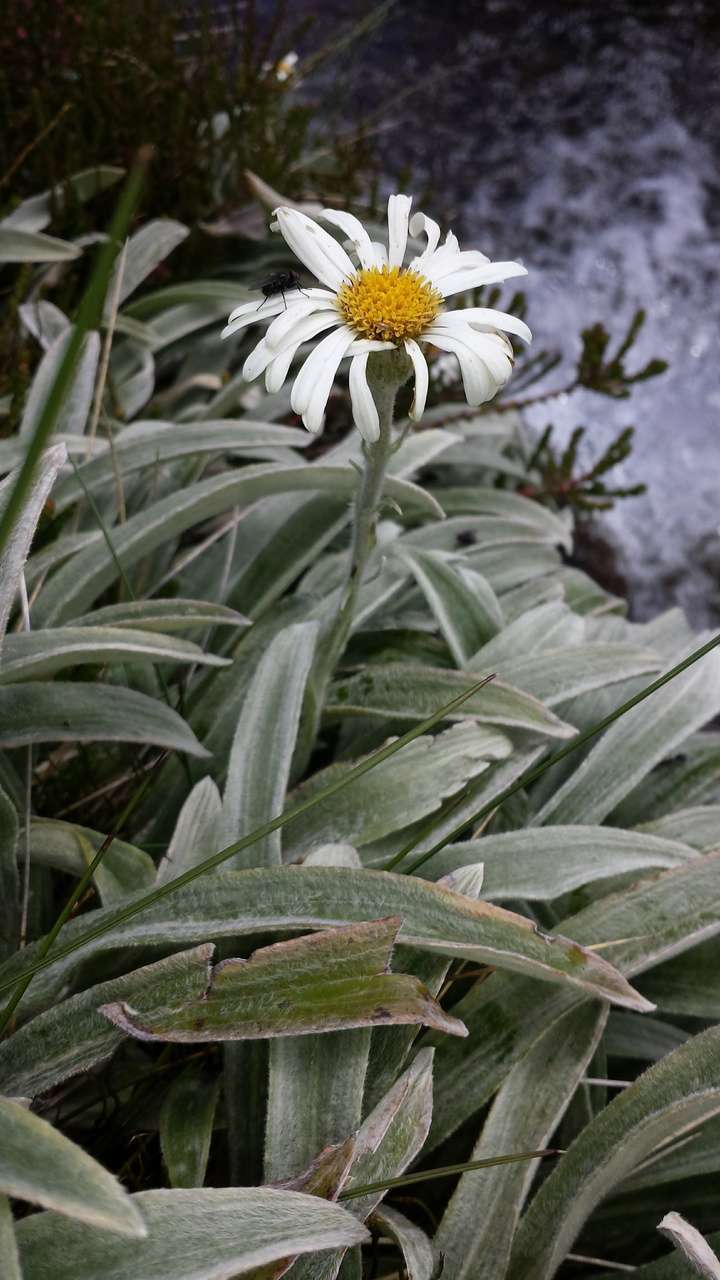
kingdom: Plantae
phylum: Tracheophyta
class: Magnoliopsida
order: Asterales
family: Asteraceae
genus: Celmisia
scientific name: Celmisia sericophylla
